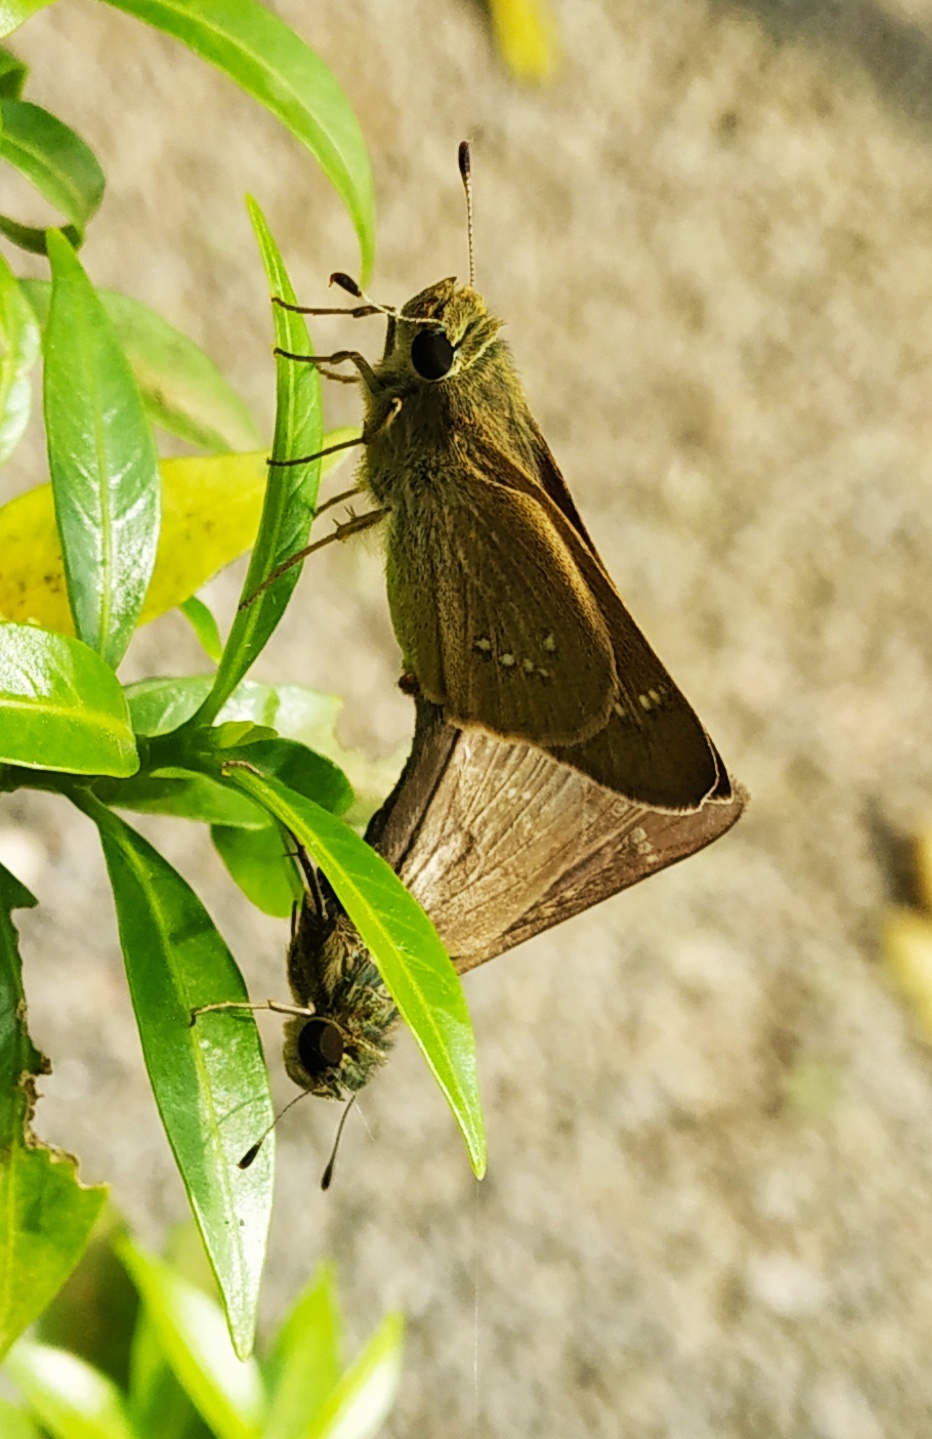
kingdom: Animalia
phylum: Arthropoda
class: Insecta
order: Lepidoptera
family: Hesperiidae
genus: Parnara
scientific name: Parnara naso
